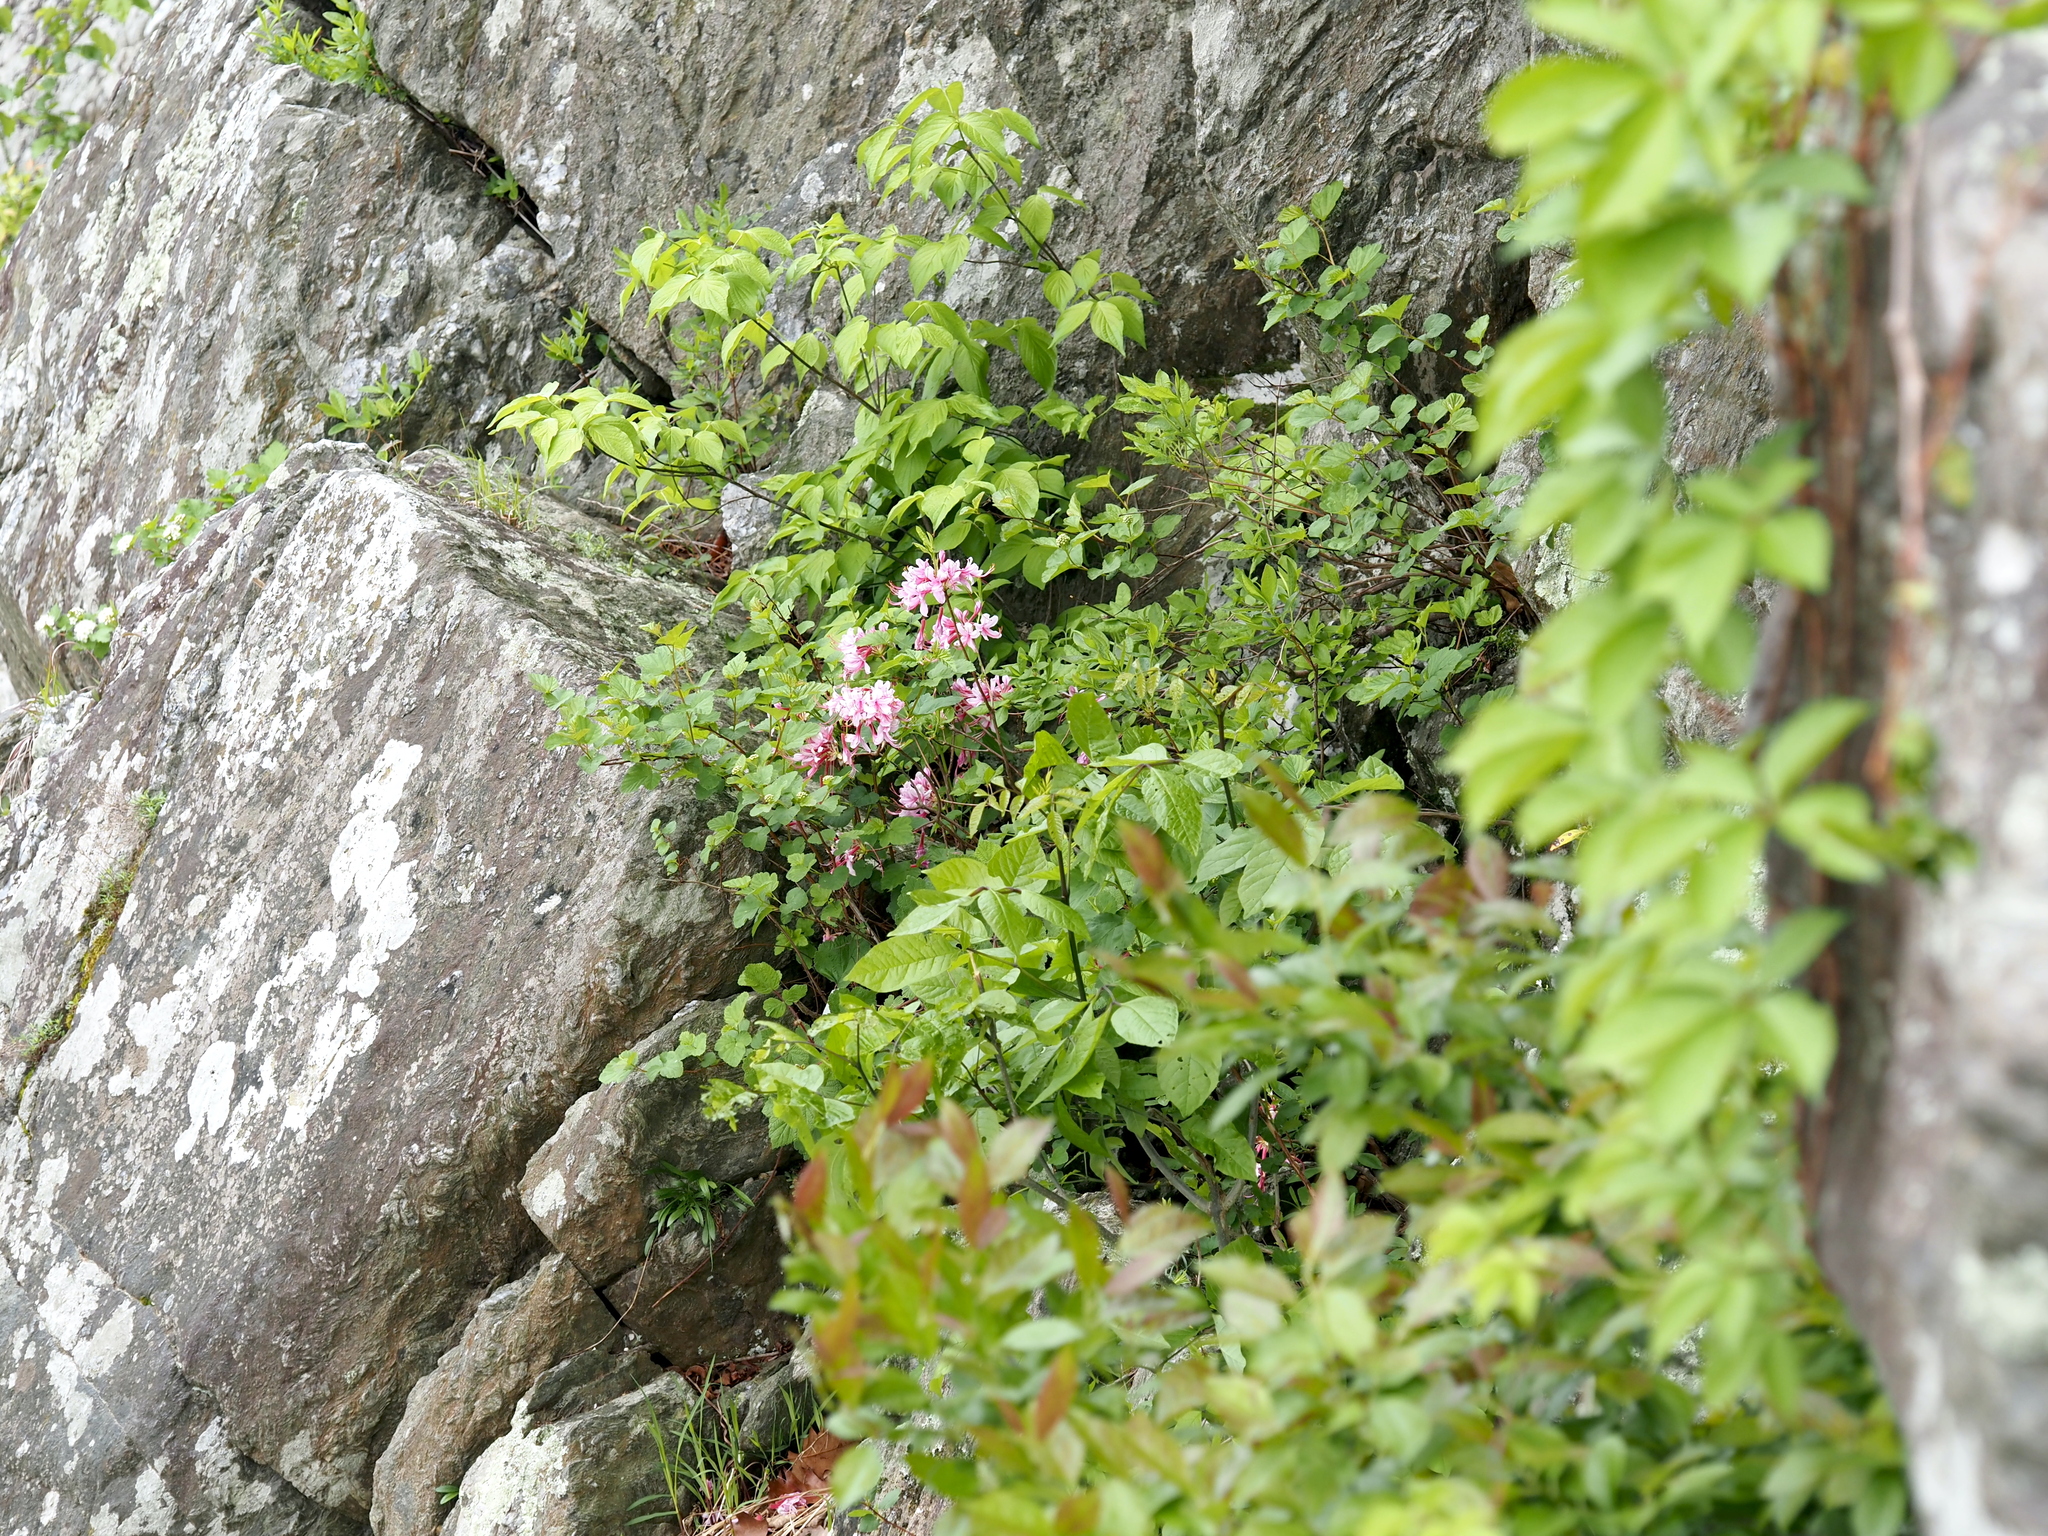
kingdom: Plantae
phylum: Tracheophyta
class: Magnoliopsida
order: Ericales
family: Ericaceae
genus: Rhododendron
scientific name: Rhododendron periclymenoides
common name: Election-pink
